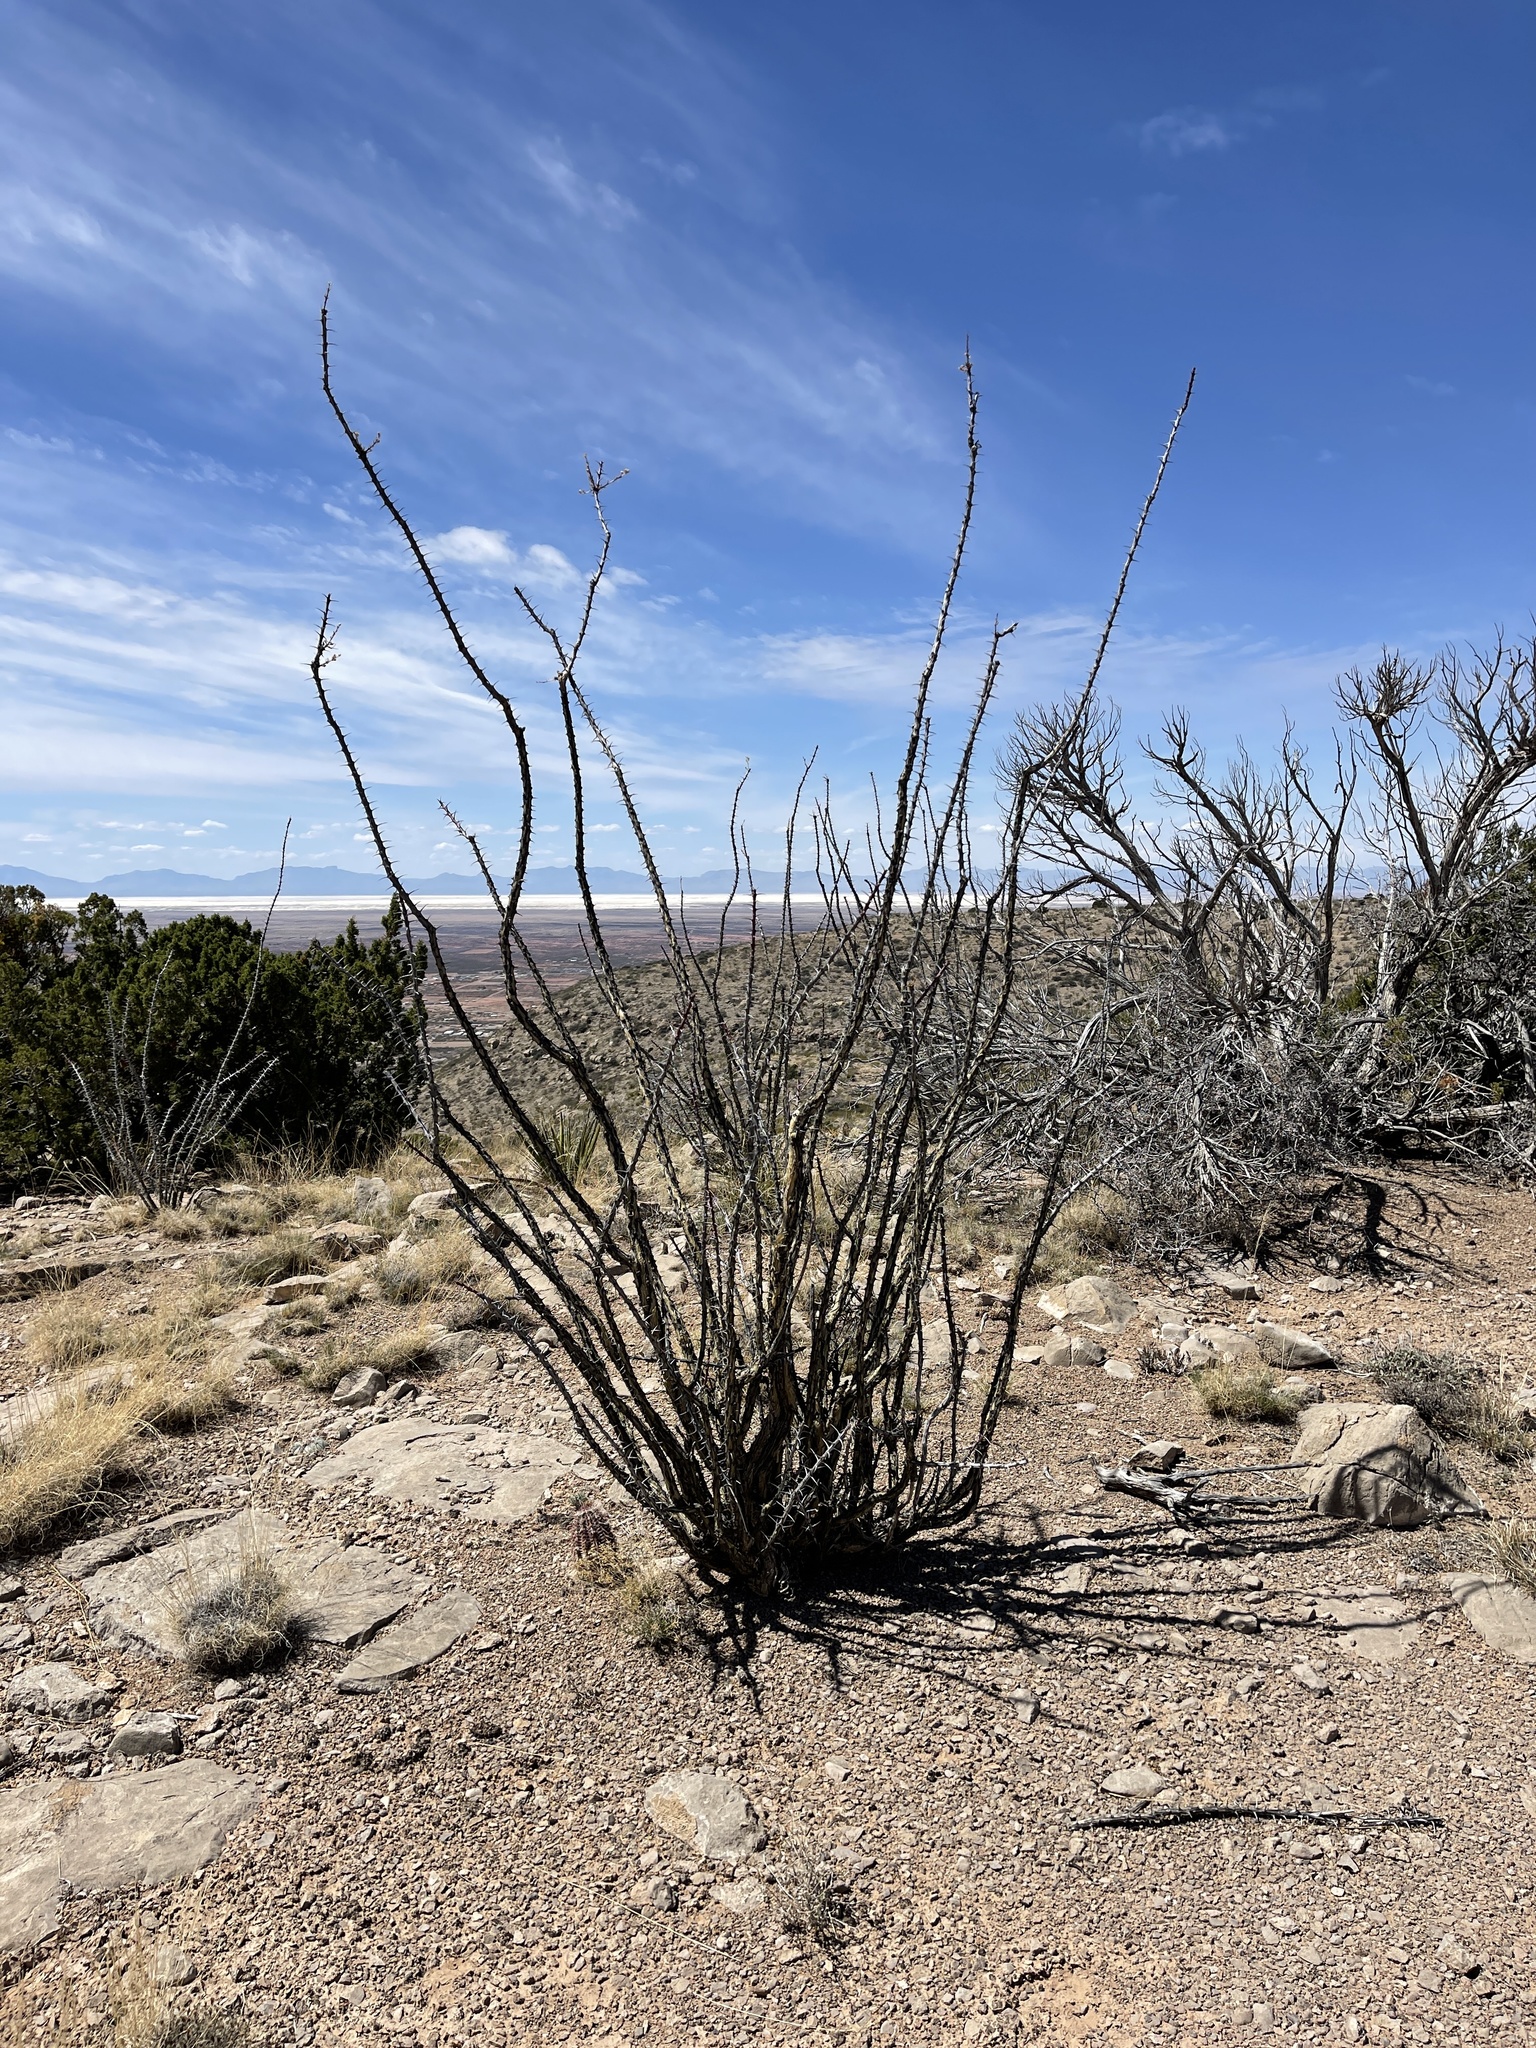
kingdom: Plantae
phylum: Tracheophyta
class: Magnoliopsida
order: Ericales
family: Fouquieriaceae
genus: Fouquieria
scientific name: Fouquieria splendens
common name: Vine-cactus
